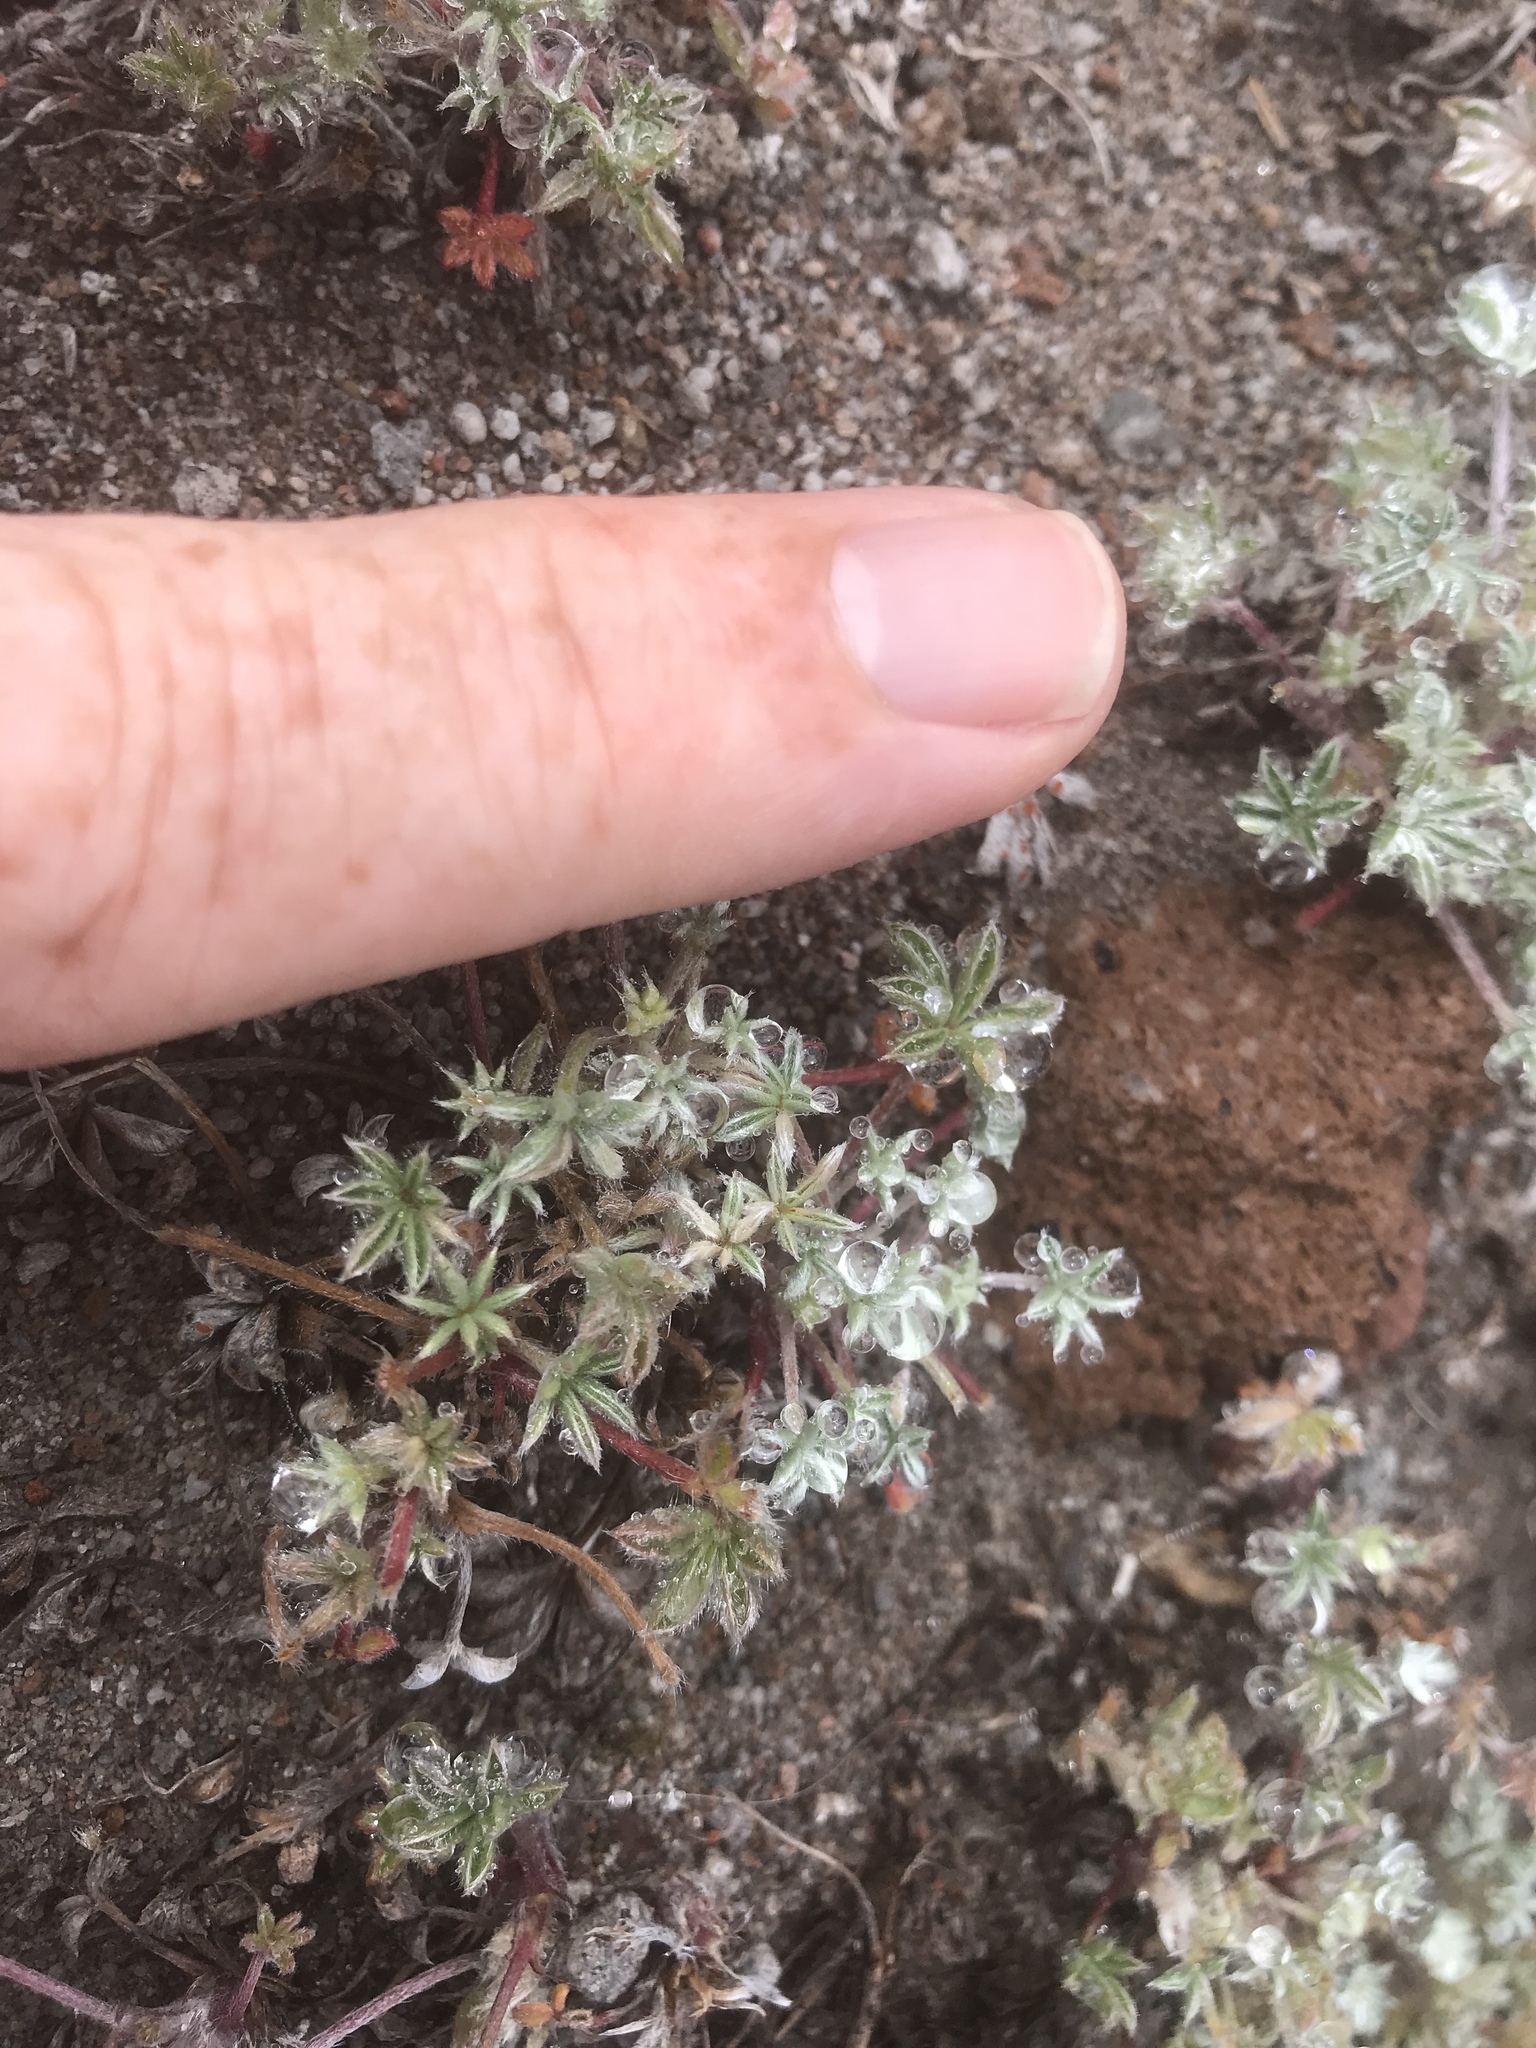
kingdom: Plantae
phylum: Tracheophyta
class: Magnoliopsida
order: Fabales
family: Fabaceae
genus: Lupinus
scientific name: Lupinus lepidus
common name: Prairie lupine
